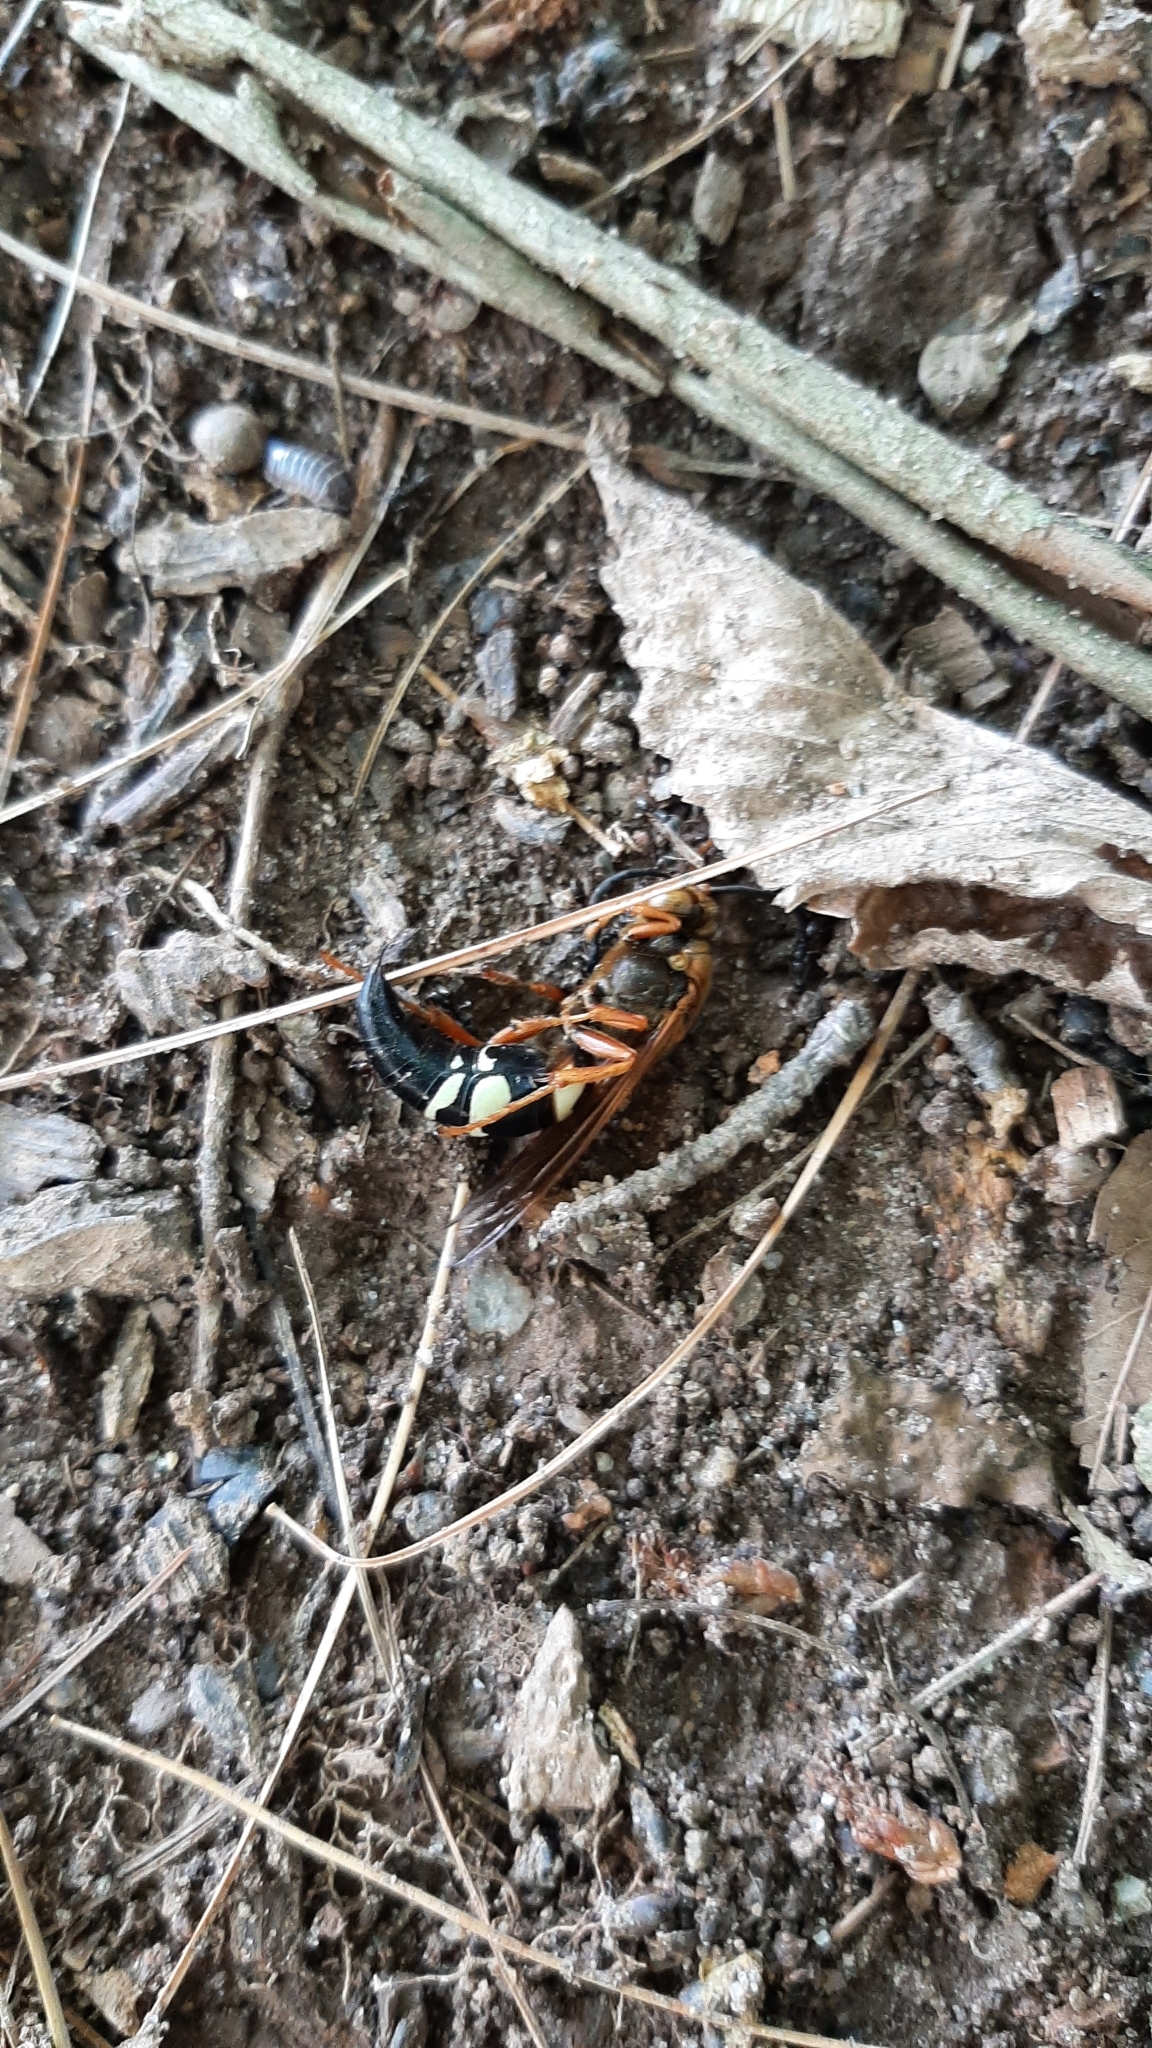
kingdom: Animalia
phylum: Arthropoda
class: Insecta
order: Hymenoptera
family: Crabronidae
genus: Sphecius
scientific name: Sphecius speciosus
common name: Cicada killer
